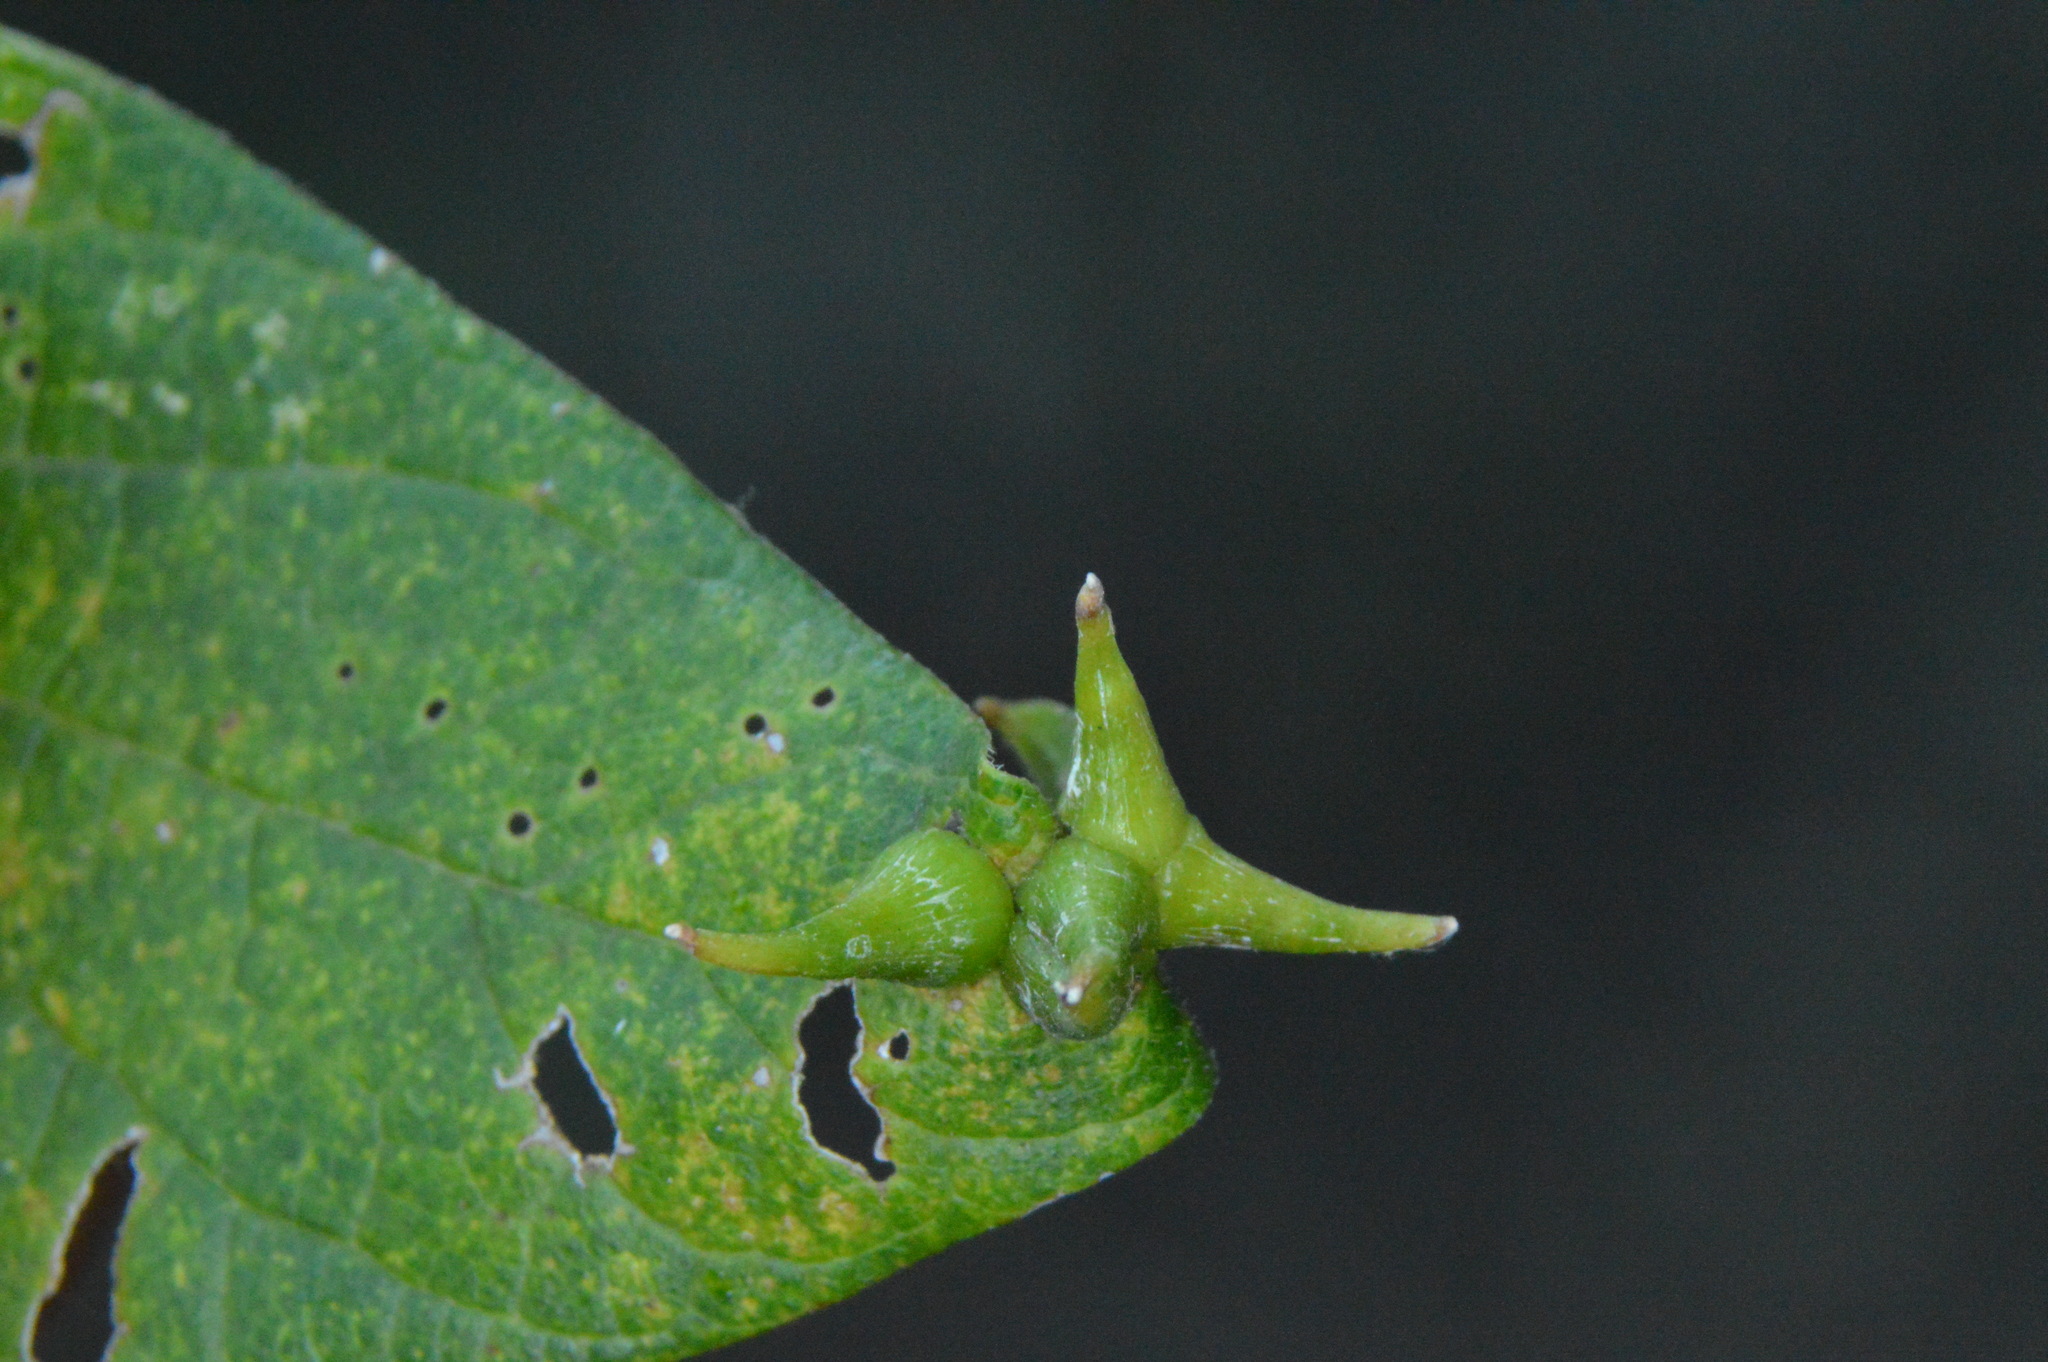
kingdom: Animalia
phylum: Arthropoda
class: Insecta
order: Diptera
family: Cecidomyiidae
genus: Celticecis
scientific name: Celticecis subulata
